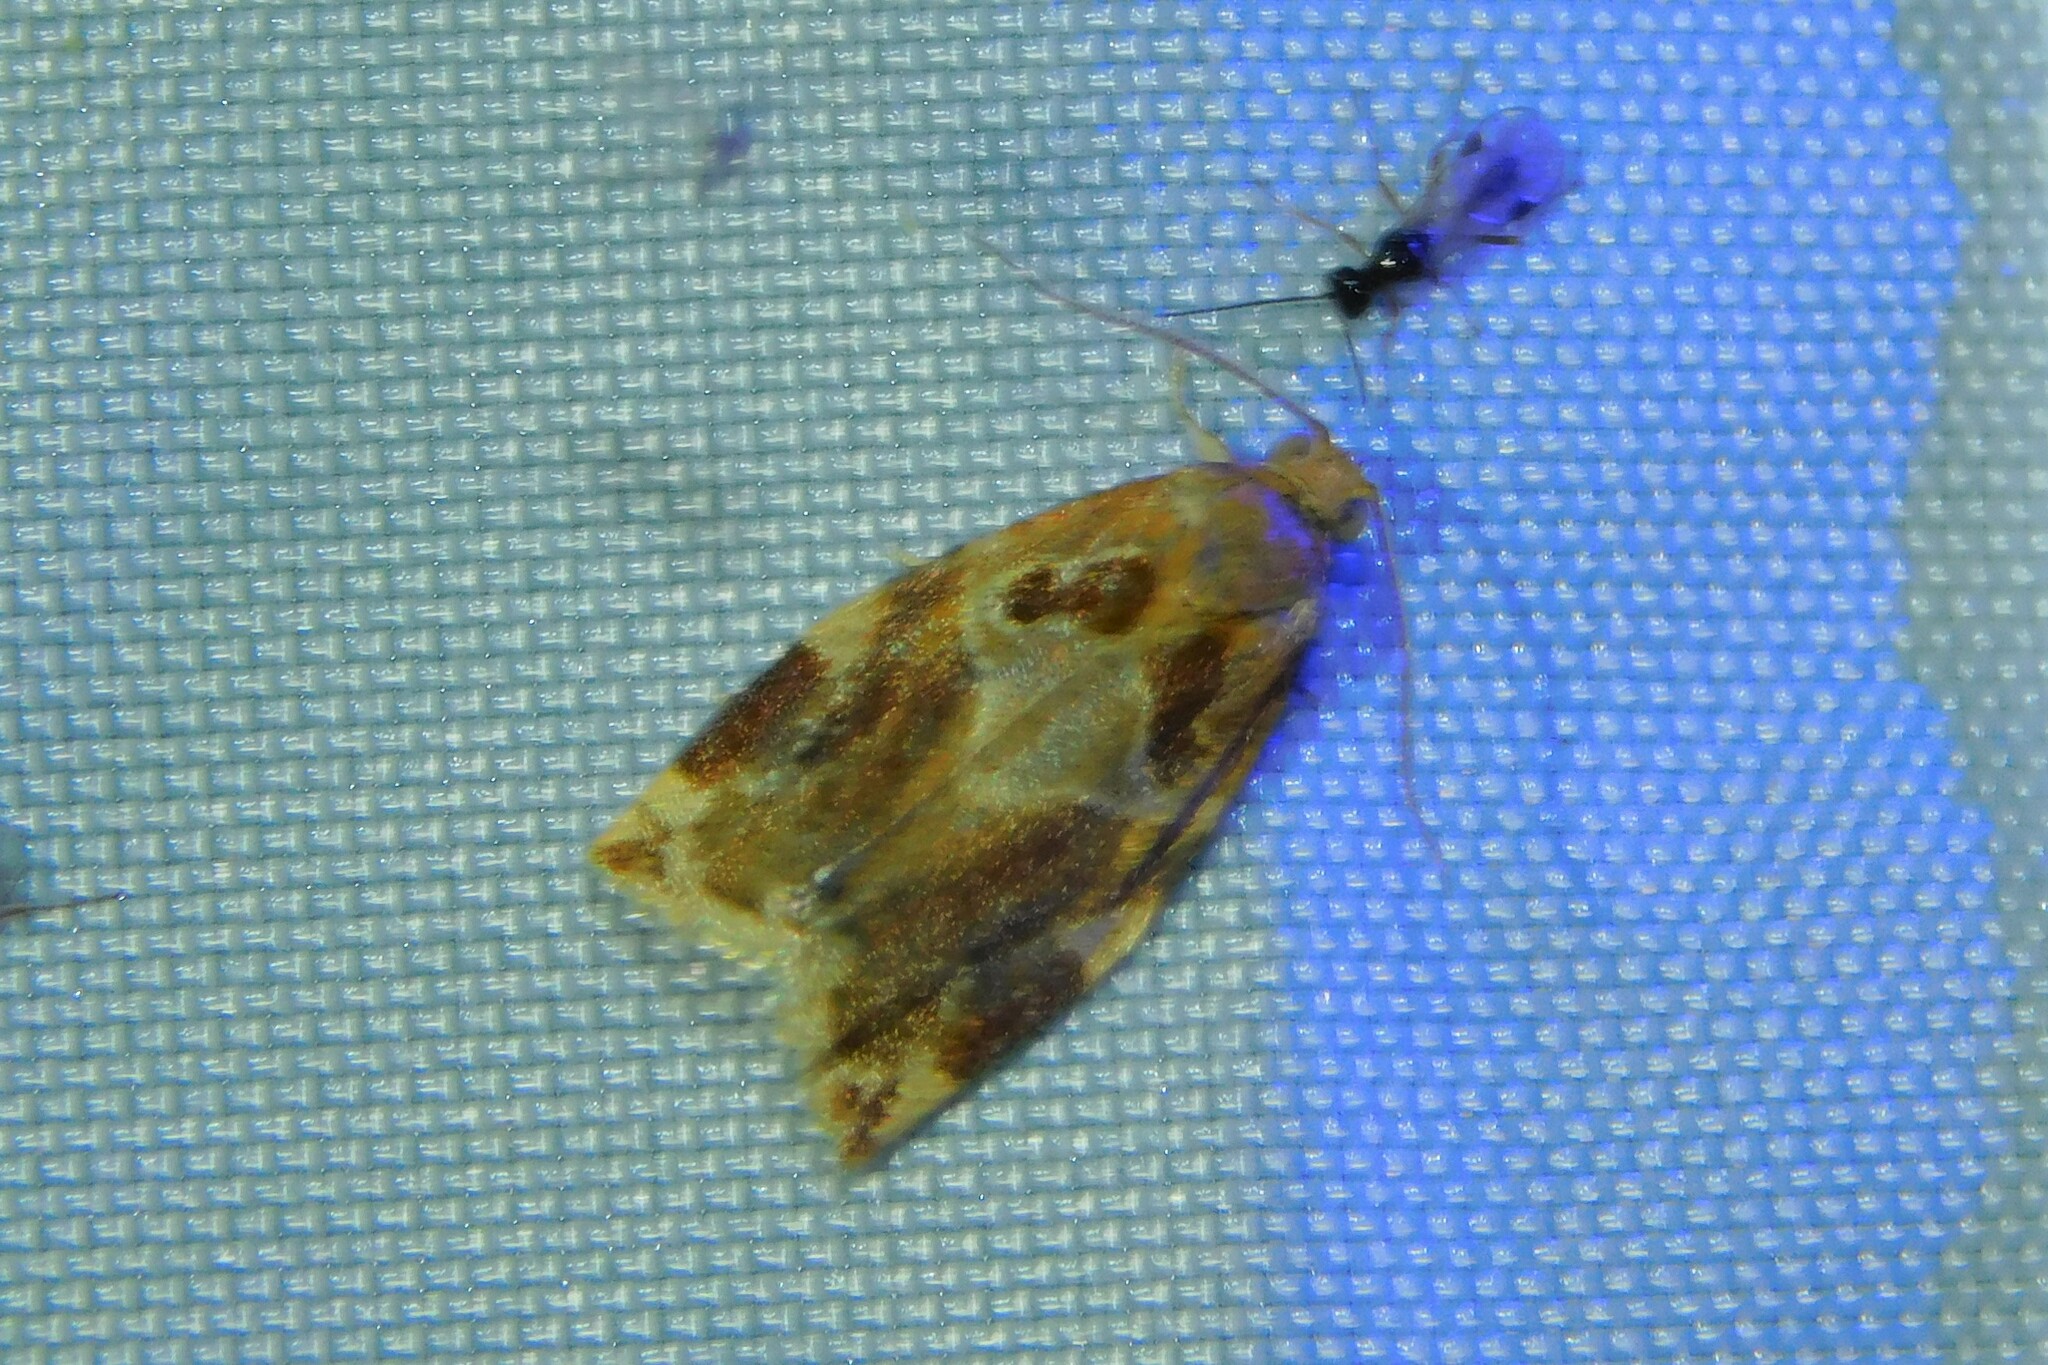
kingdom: Animalia
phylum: Arthropoda
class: Insecta
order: Lepidoptera
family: Tortricidae
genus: Archips
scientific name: Archips xylosteana
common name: Variegated golden tortrix
